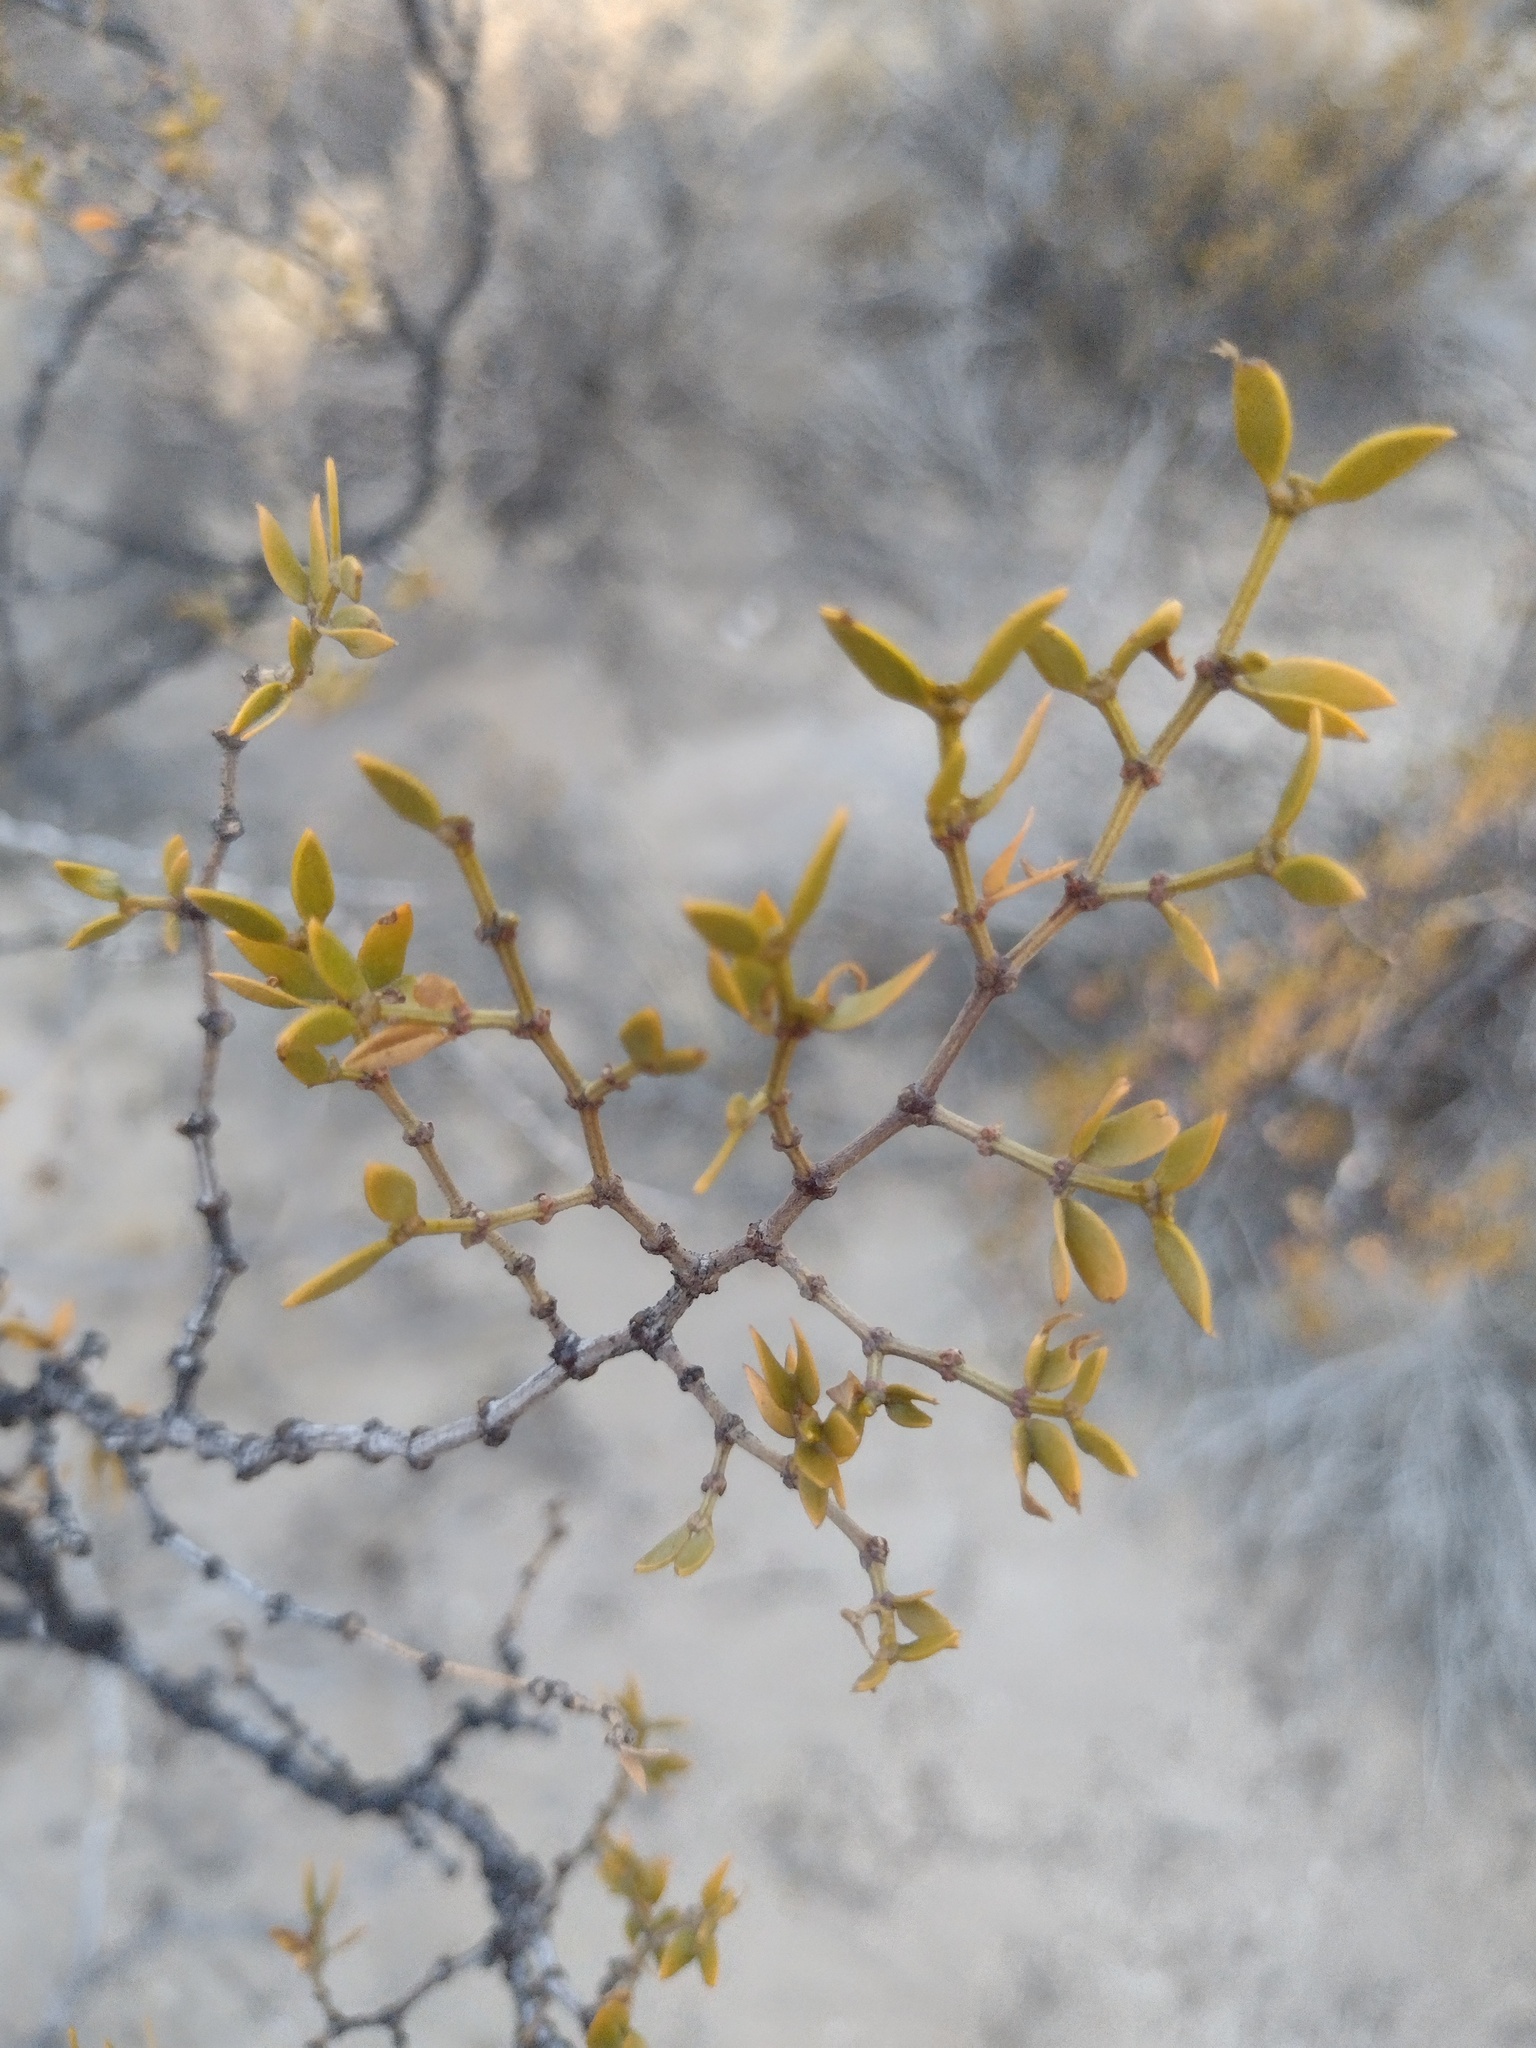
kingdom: Plantae
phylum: Tracheophyta
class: Magnoliopsida
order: Zygophyllales
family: Zygophyllaceae
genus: Larrea
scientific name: Larrea divaricata
